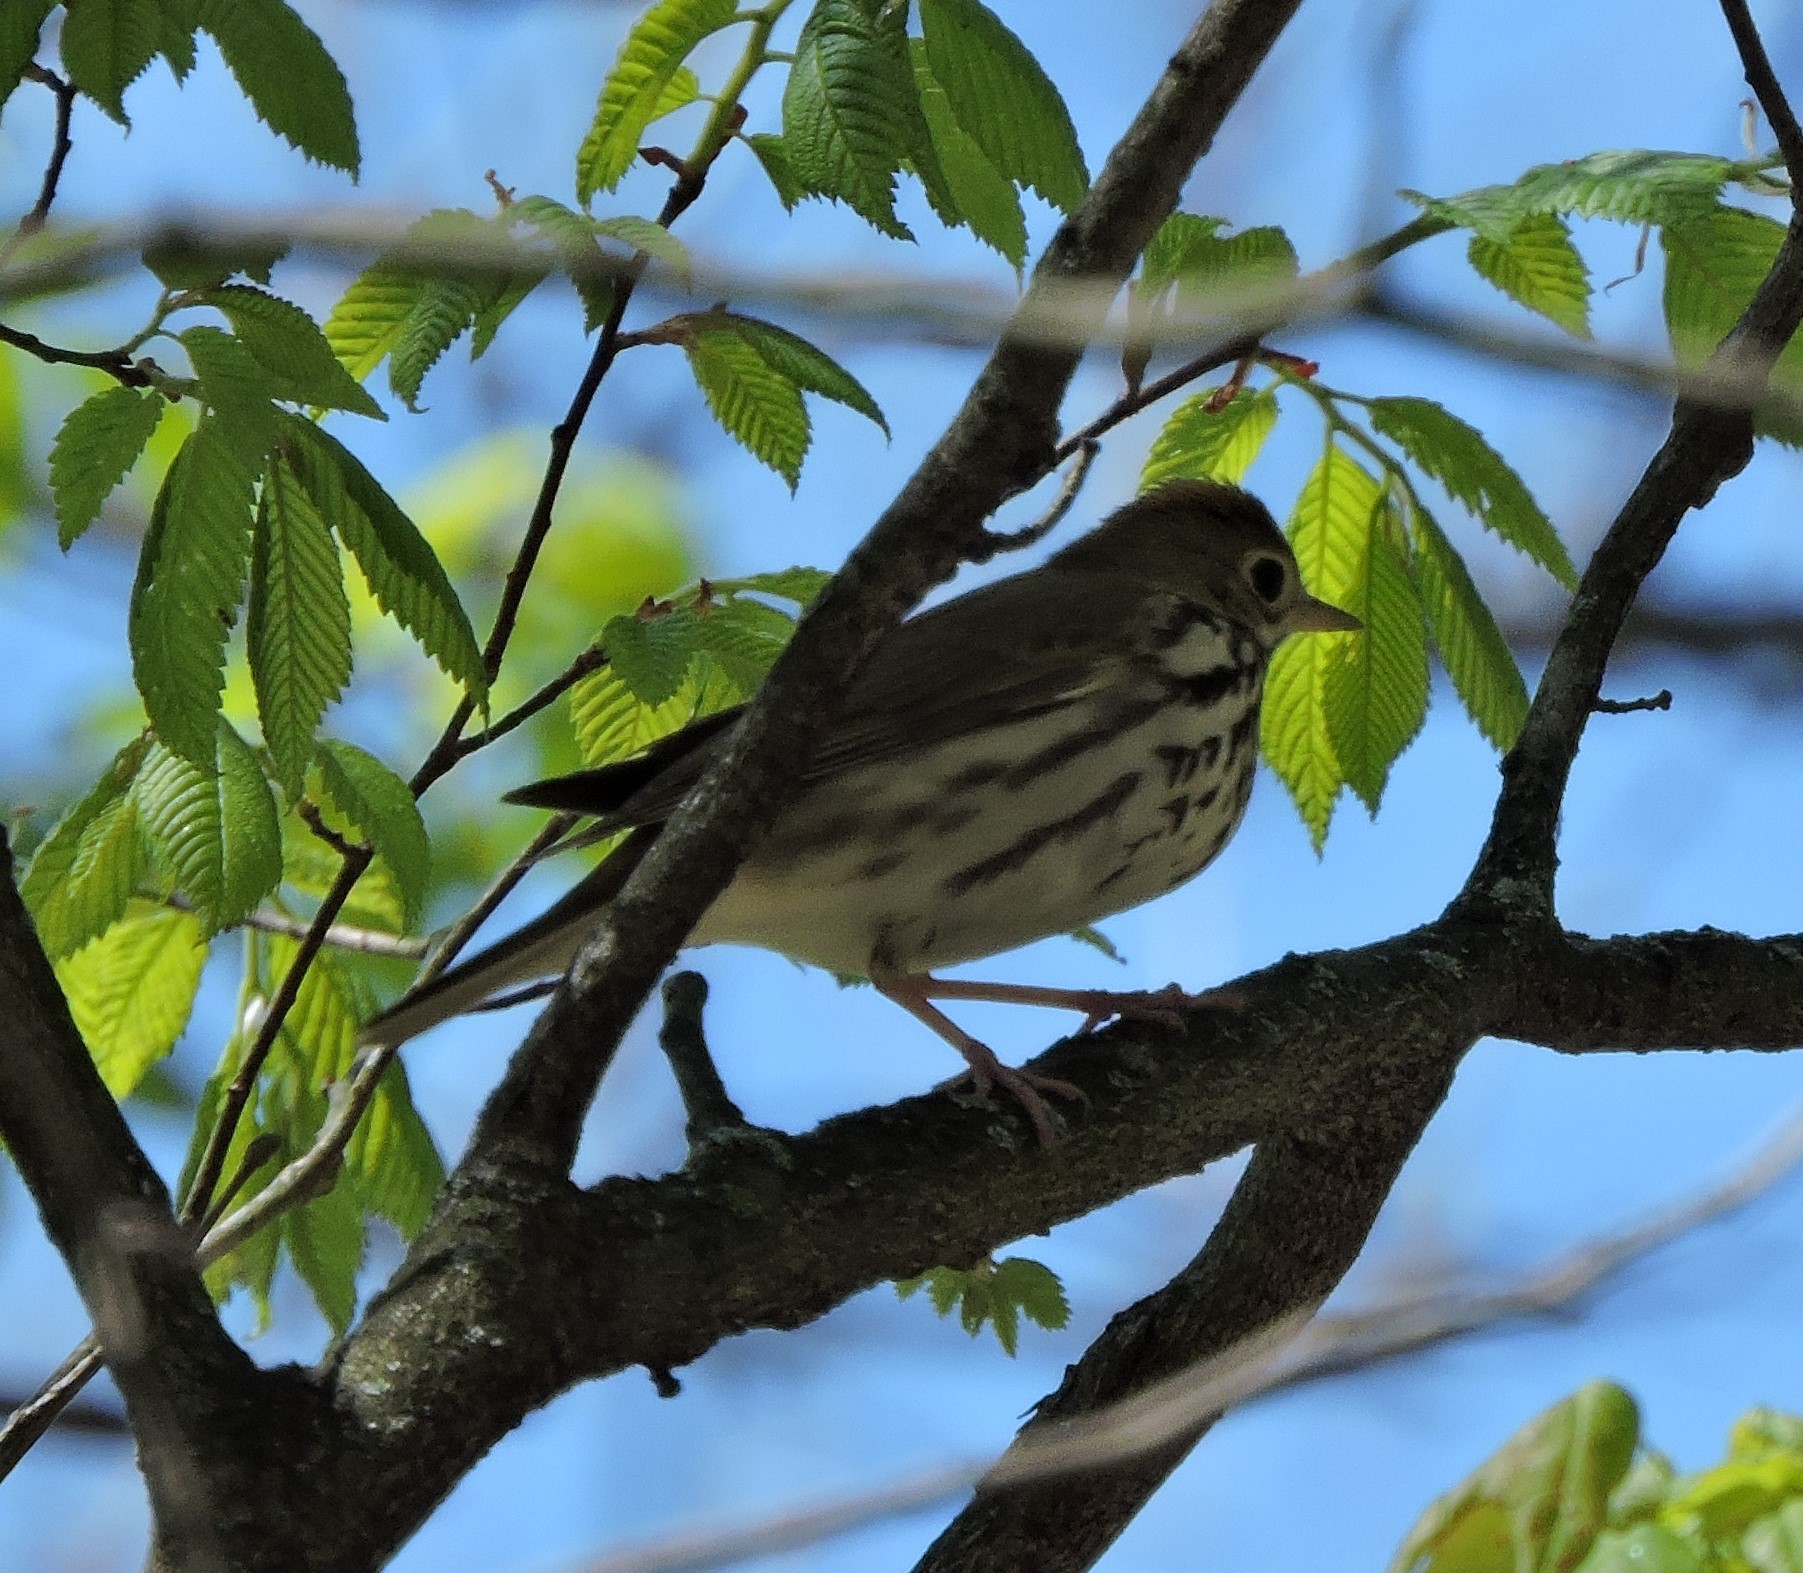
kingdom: Animalia
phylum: Chordata
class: Aves
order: Passeriformes
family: Parulidae
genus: Seiurus
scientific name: Seiurus aurocapilla
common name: Ovenbird
